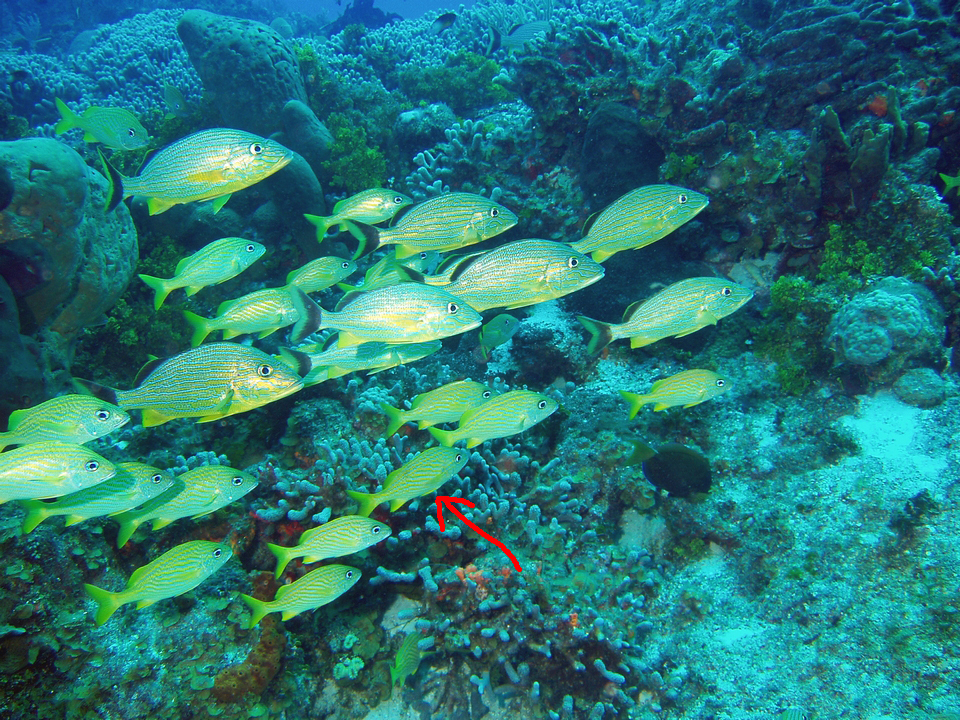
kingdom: Animalia
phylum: Chordata
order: Perciformes
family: Haemulidae
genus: Haemulon
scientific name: Haemulon flavolineatum
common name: French grunt
